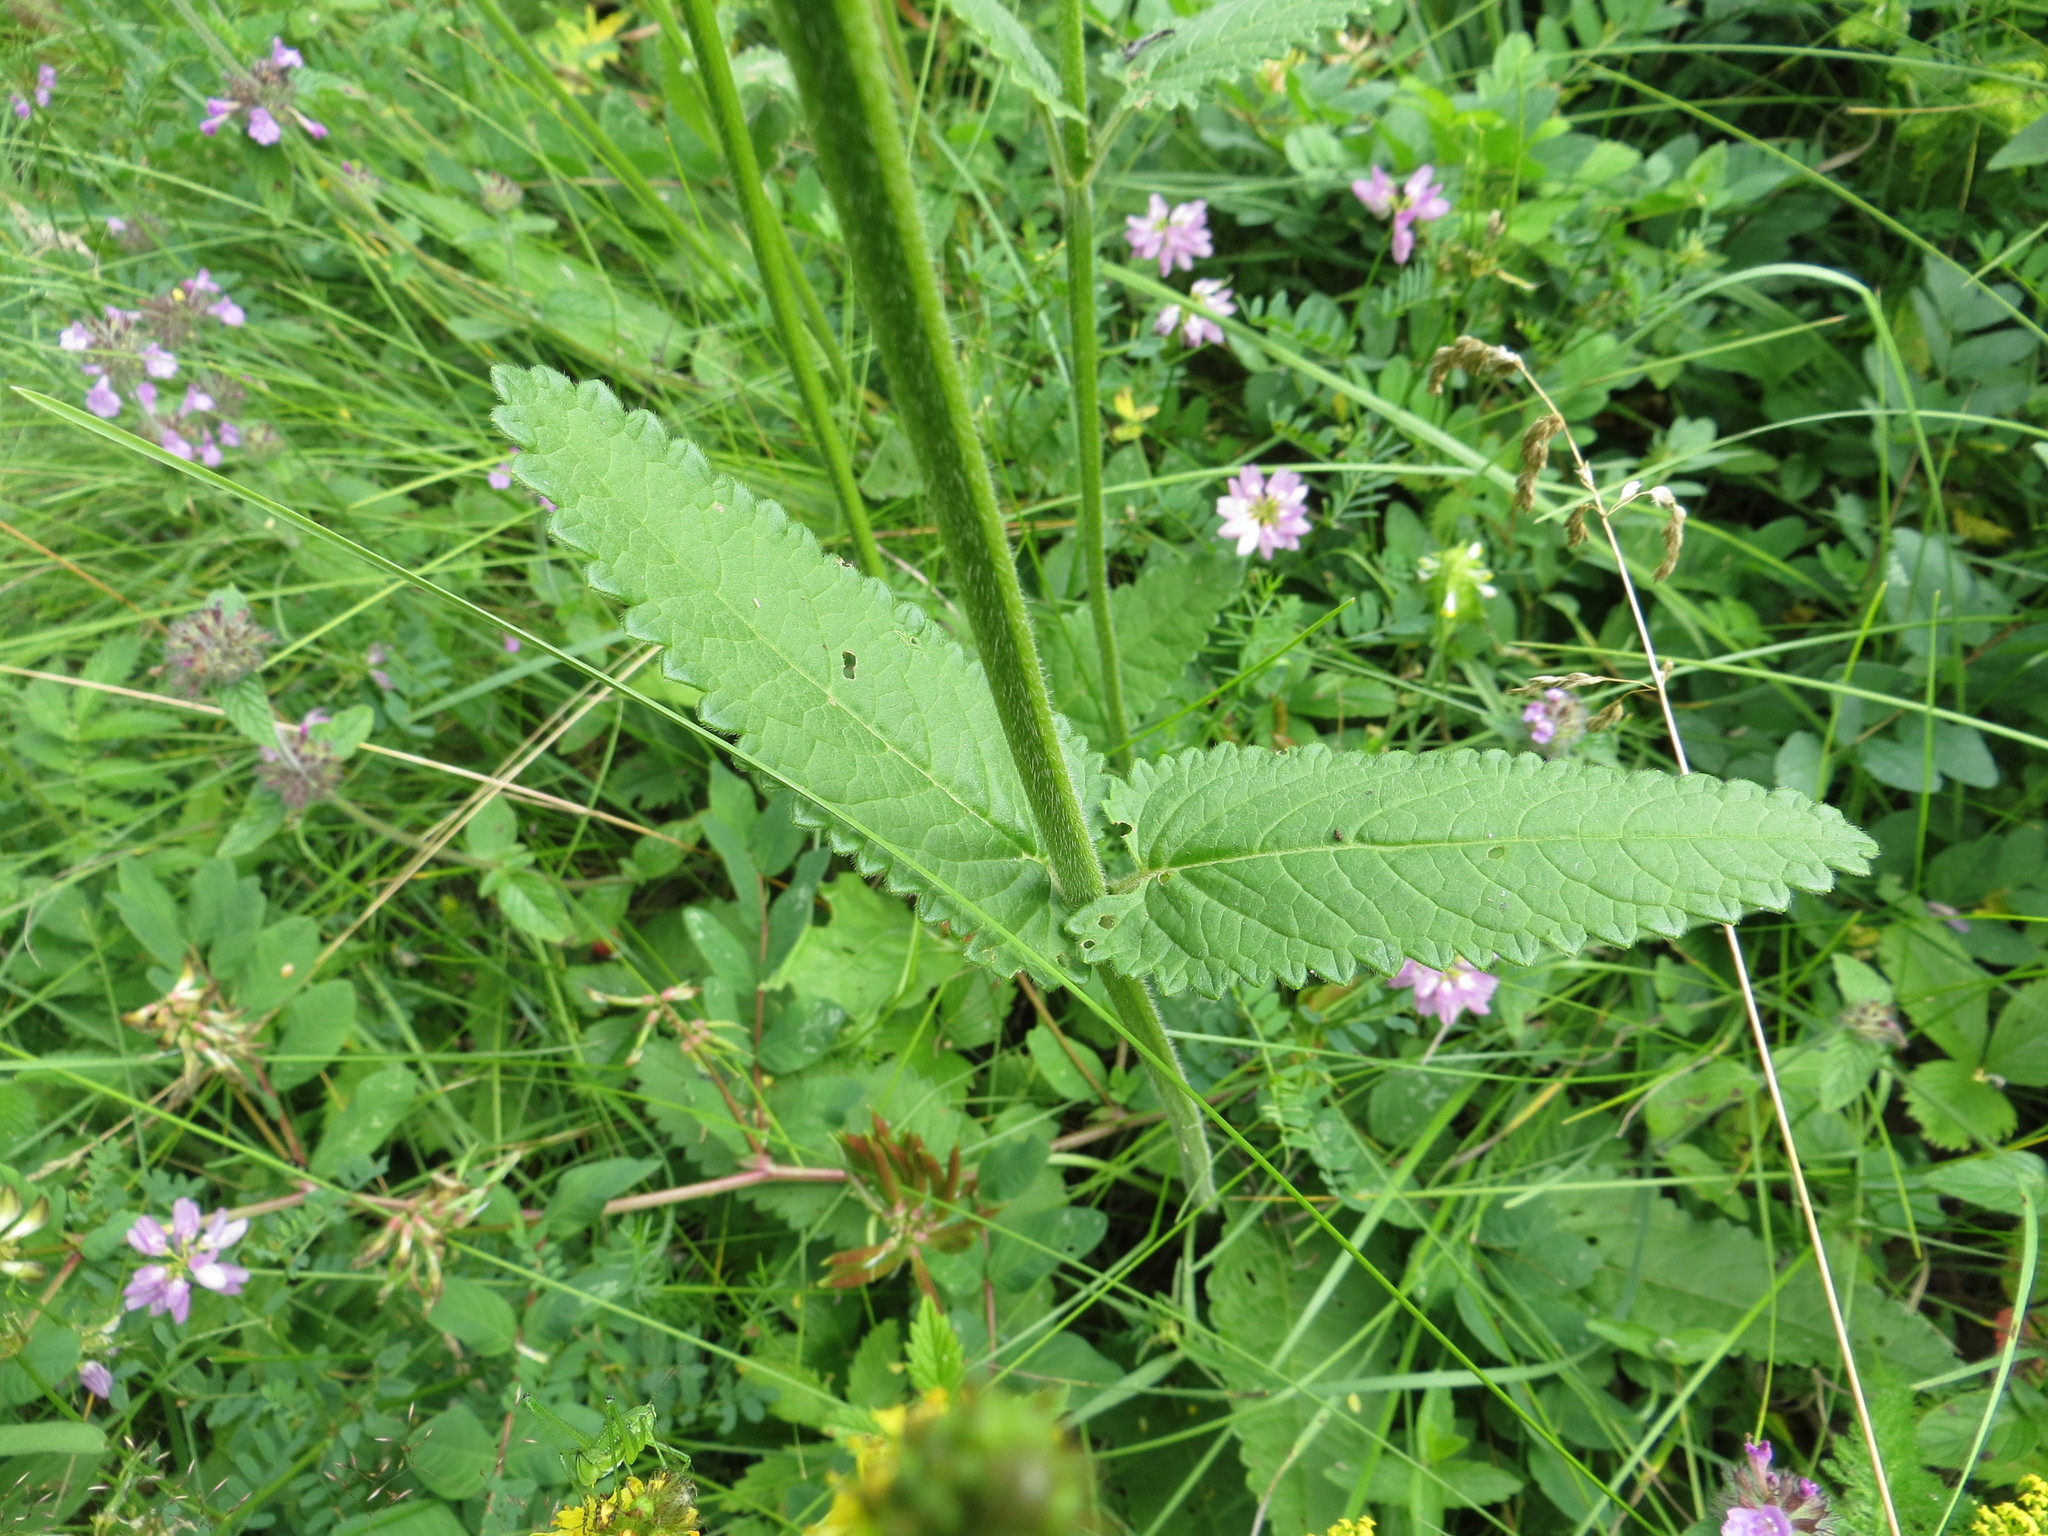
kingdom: Plantae
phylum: Tracheophyta
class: Magnoliopsida
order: Lamiales
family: Lamiaceae
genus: Betonica
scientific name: Betonica officinalis
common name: Bishop's-wort
